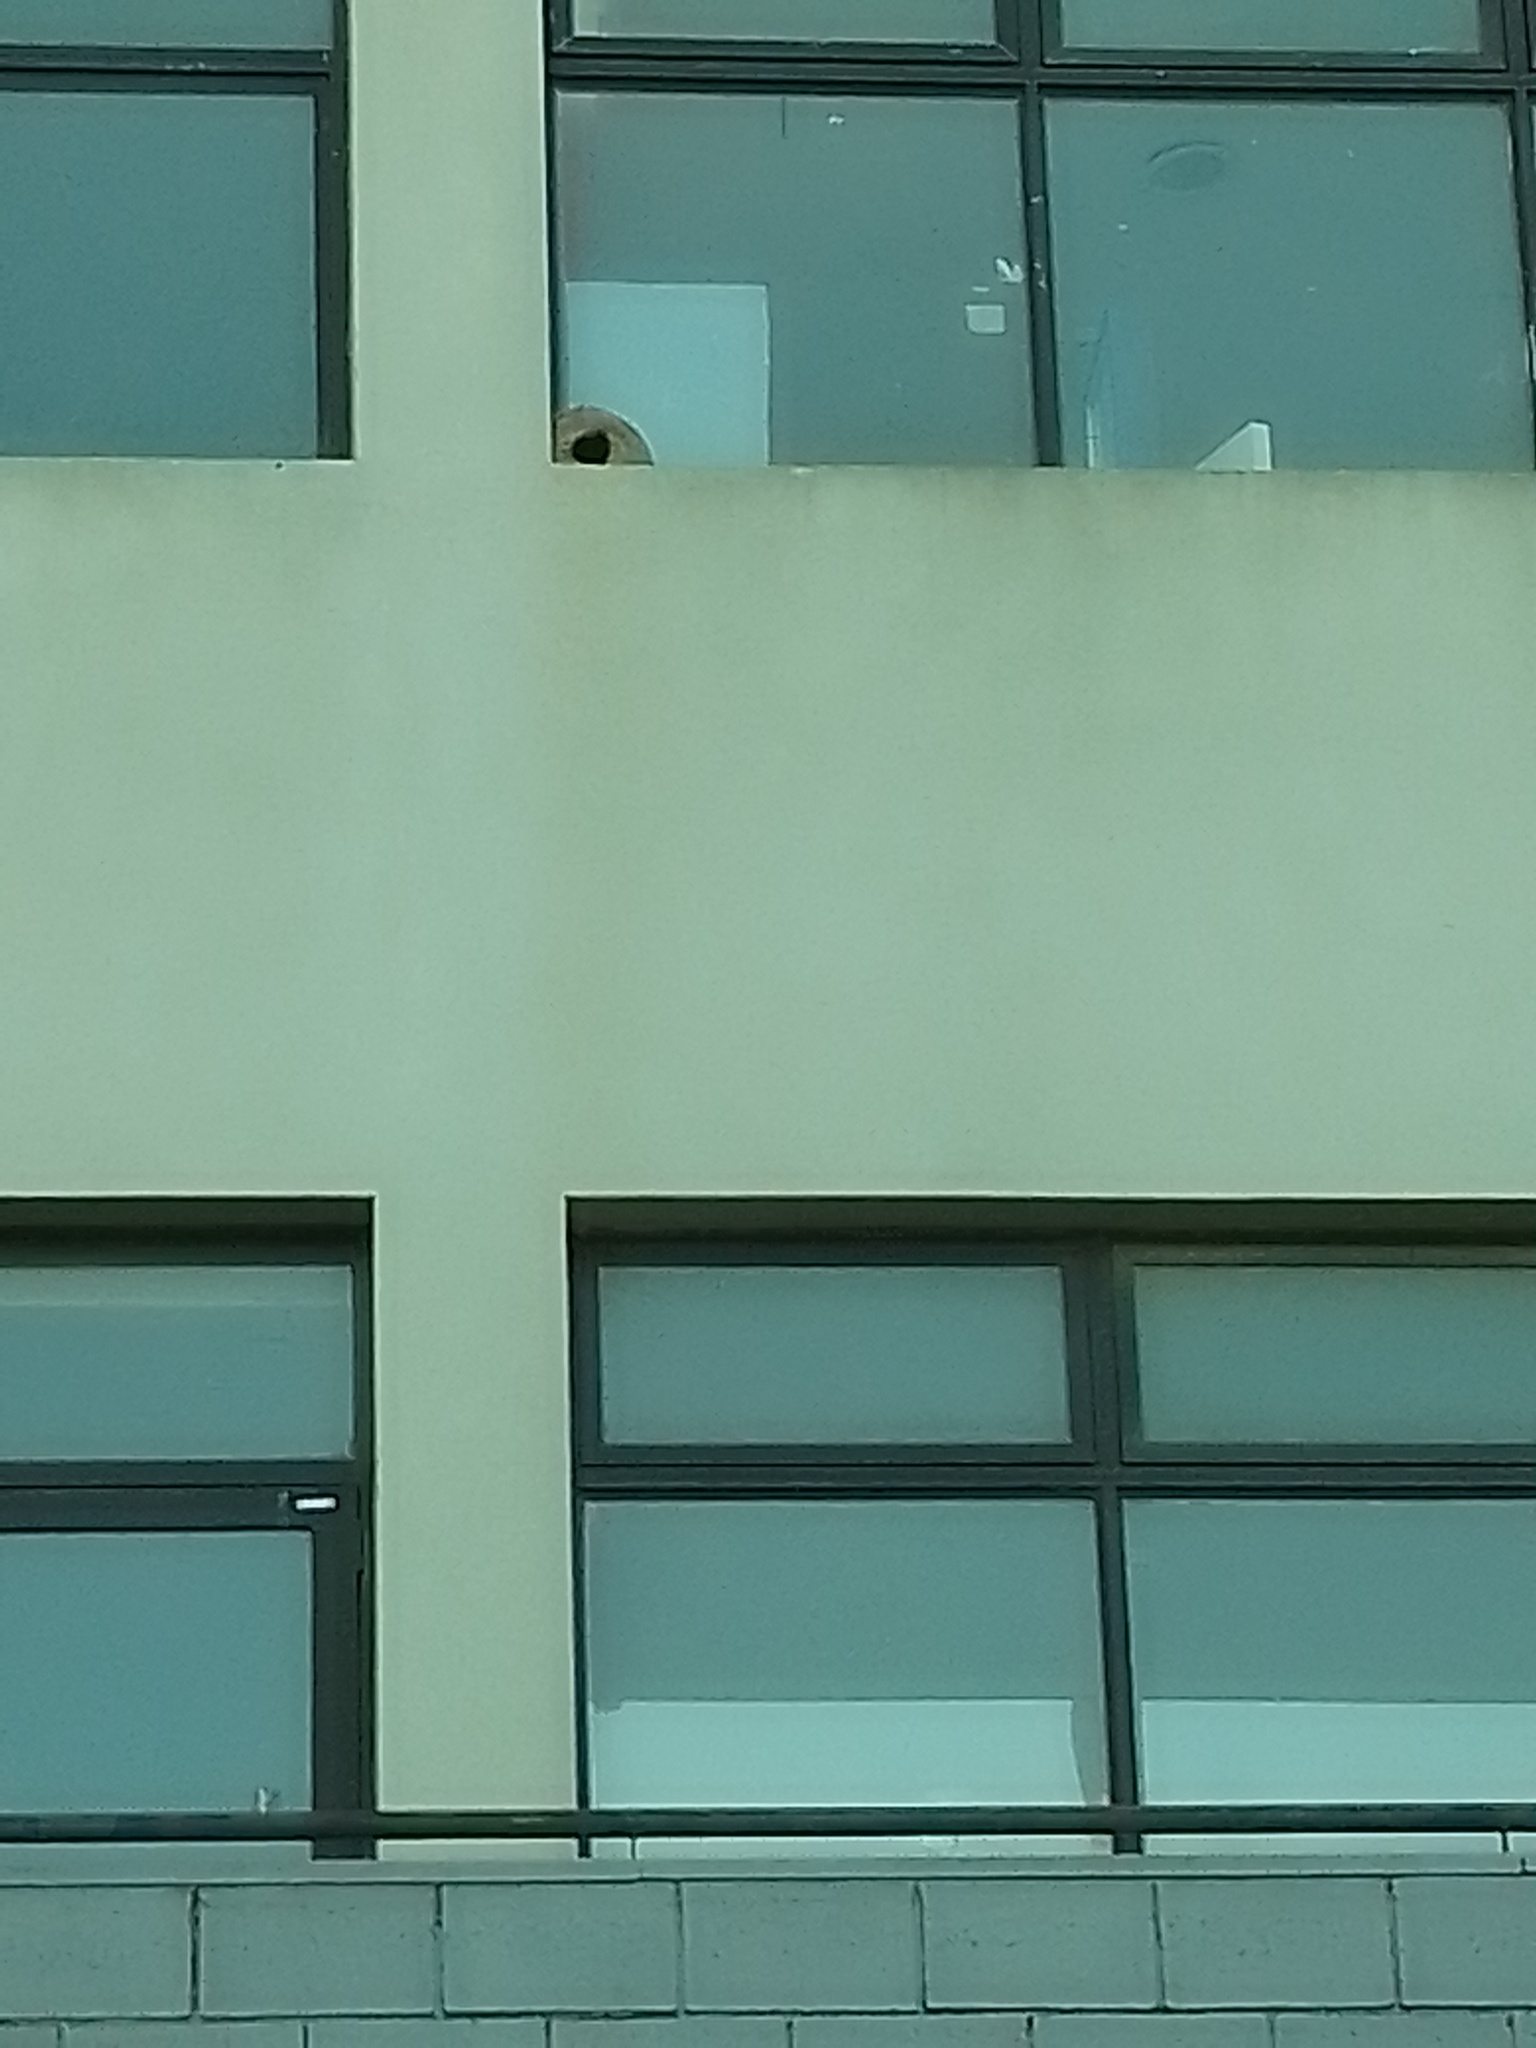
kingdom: Animalia
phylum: Chordata
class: Aves
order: Passeriformes
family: Furnariidae
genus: Furnarius
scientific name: Furnarius rufus
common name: Rufous hornero
